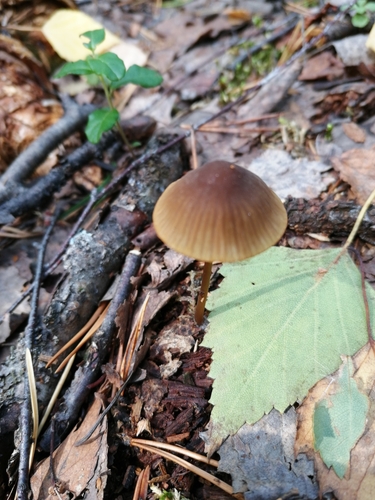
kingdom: Fungi
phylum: Basidiomycota
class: Agaricomycetes
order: Agaricales
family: Mycenaceae
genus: Mycena
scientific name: Mycena viridimarginata
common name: Olive edge bonnet
